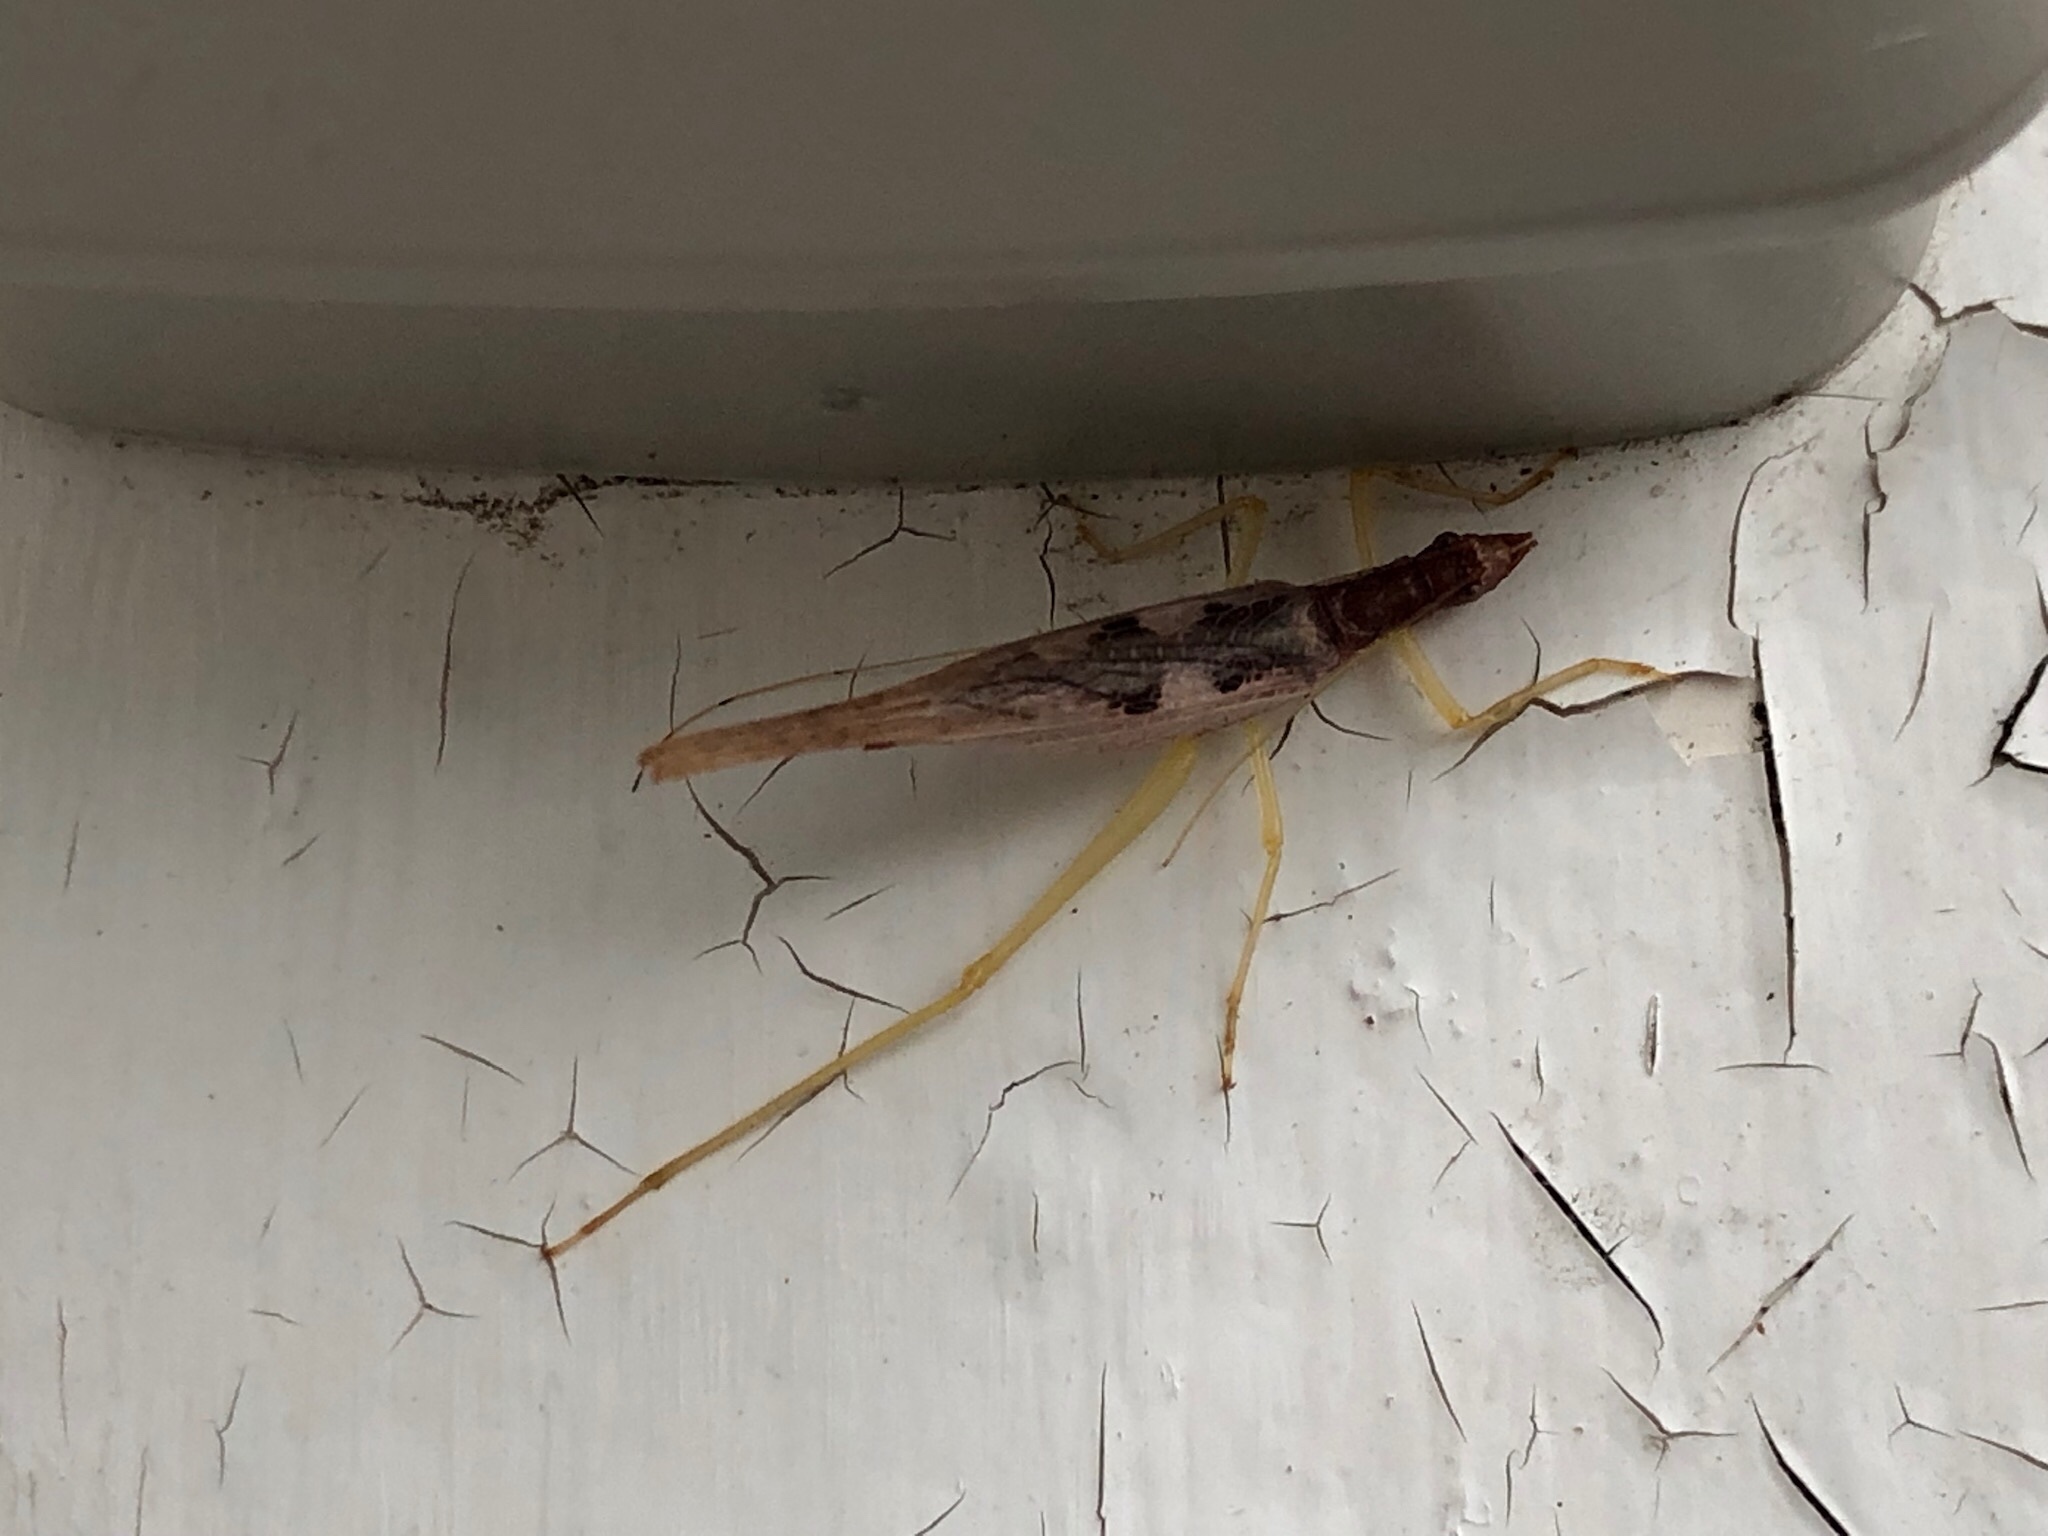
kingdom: Animalia
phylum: Arthropoda
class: Insecta
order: Orthoptera
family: Gryllidae
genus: Neoxabea
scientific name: Neoxabea bipunctata
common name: Two-spotted tree cricket
